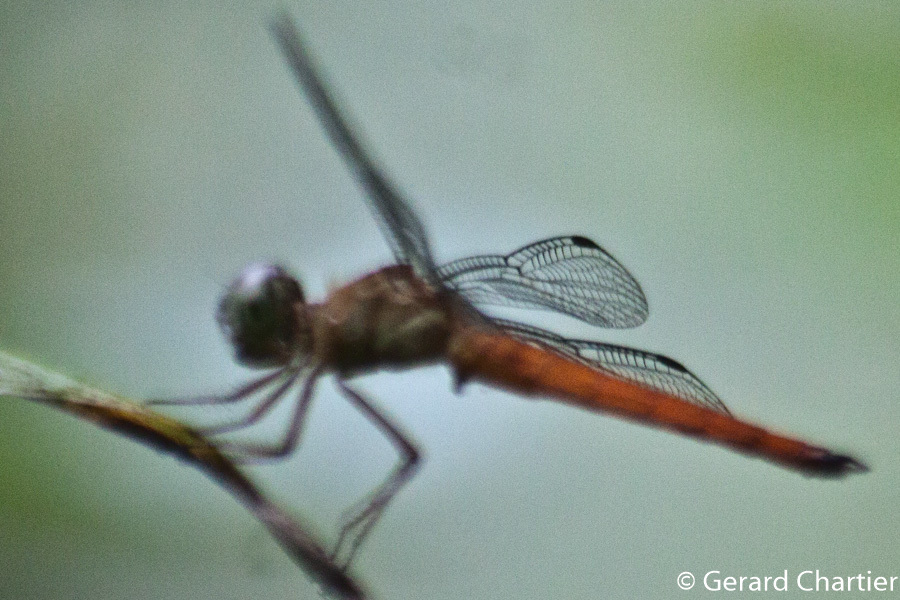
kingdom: Animalia
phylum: Arthropoda
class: Insecta
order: Odonata
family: Libellulidae
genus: Orchithemis
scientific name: Orchithemis pulcherrima
